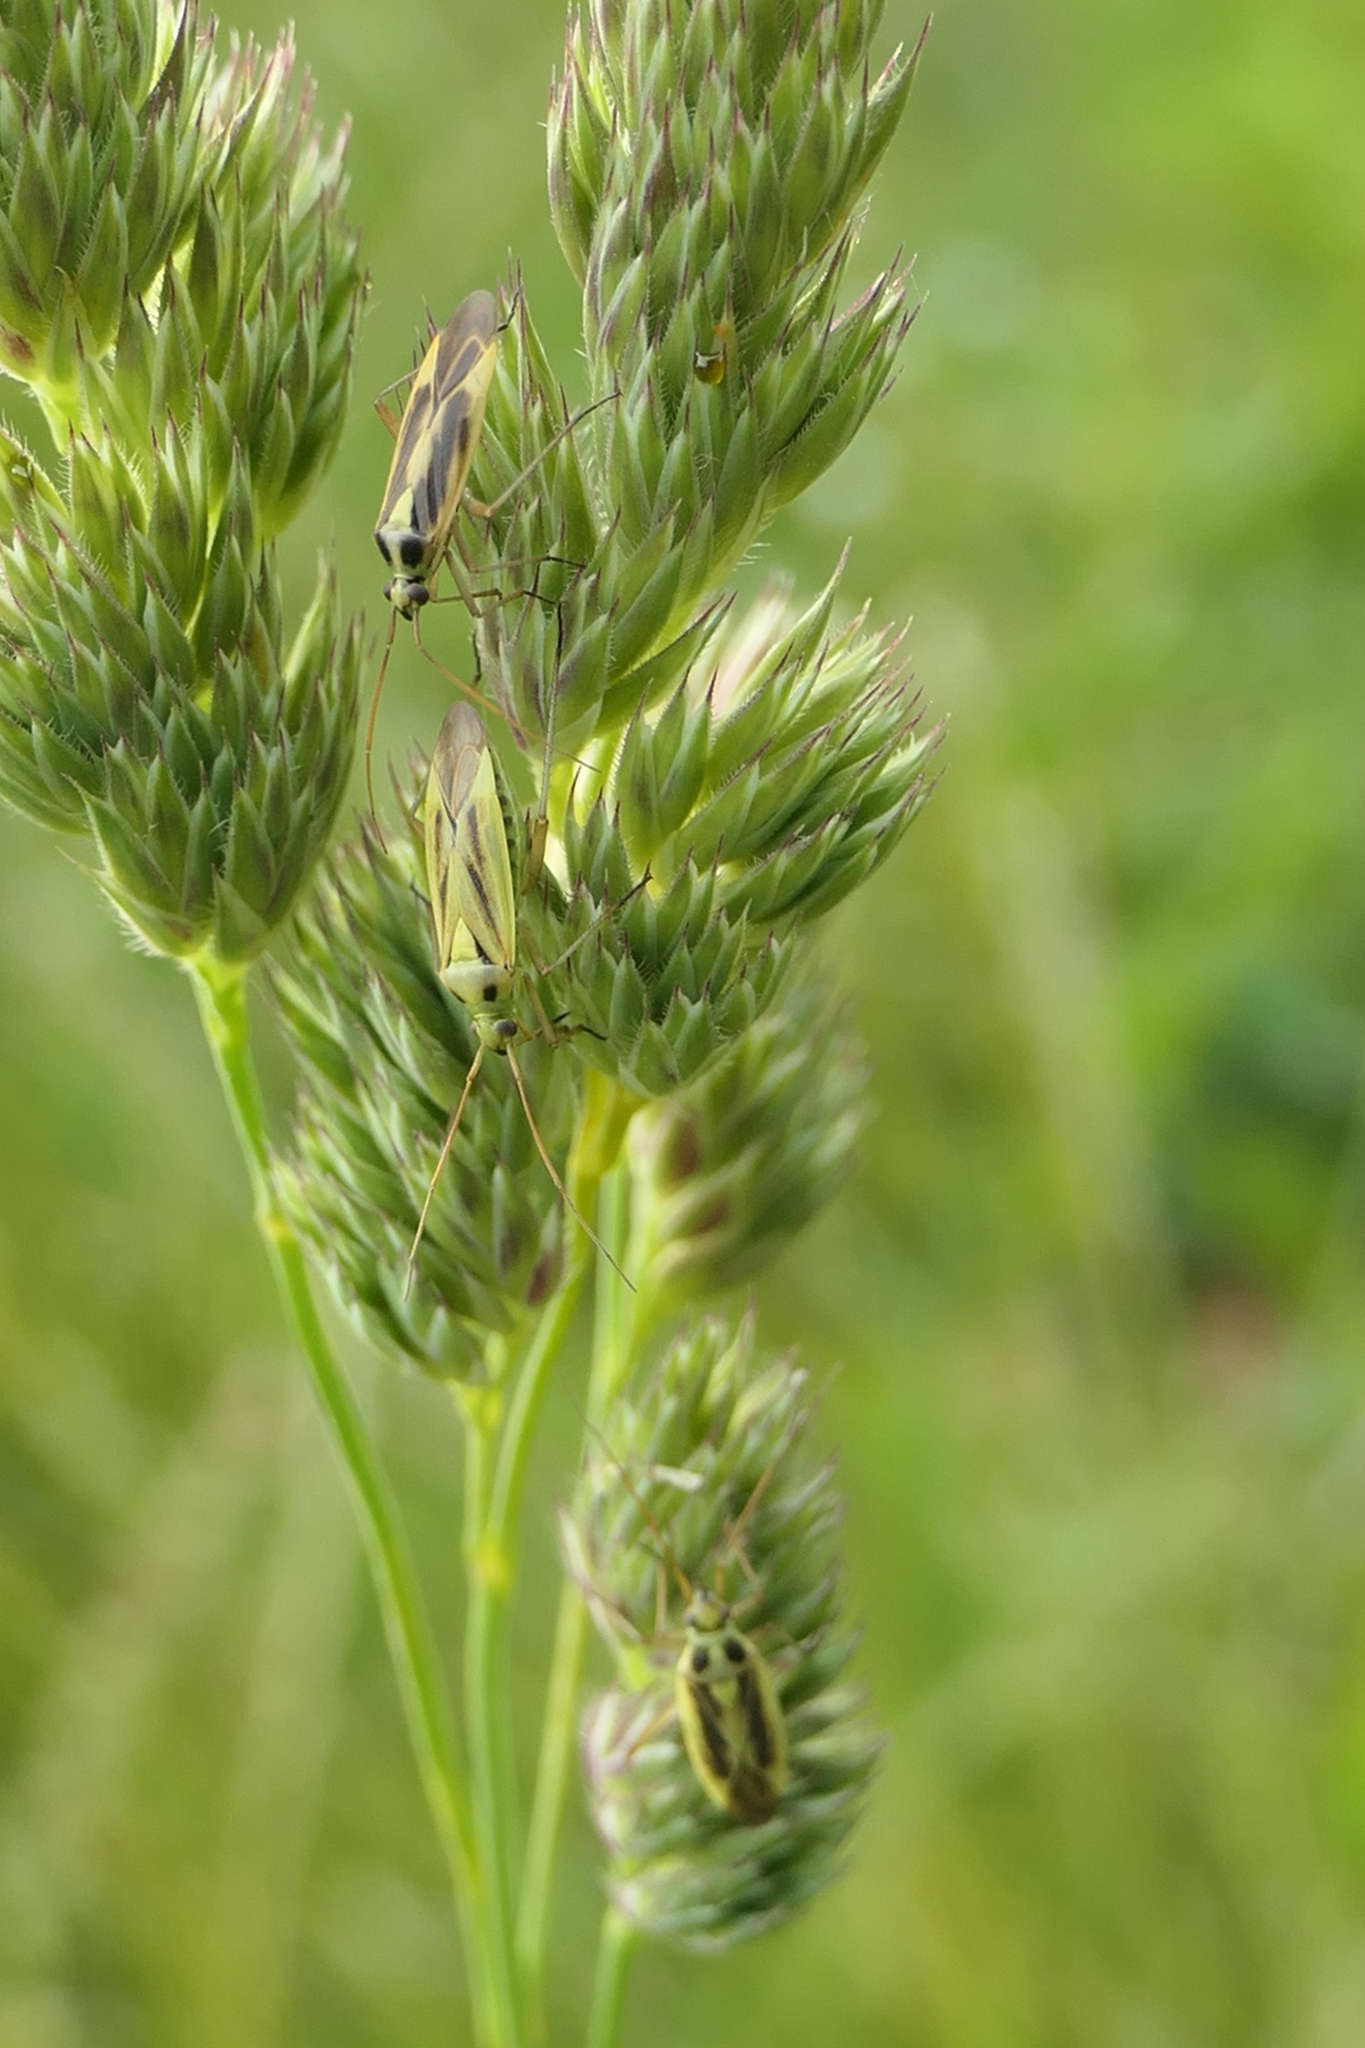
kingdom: Animalia
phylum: Arthropoda
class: Insecta
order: Hemiptera
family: Miridae
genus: Stenotus
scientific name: Stenotus binotatus
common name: Plant bug
